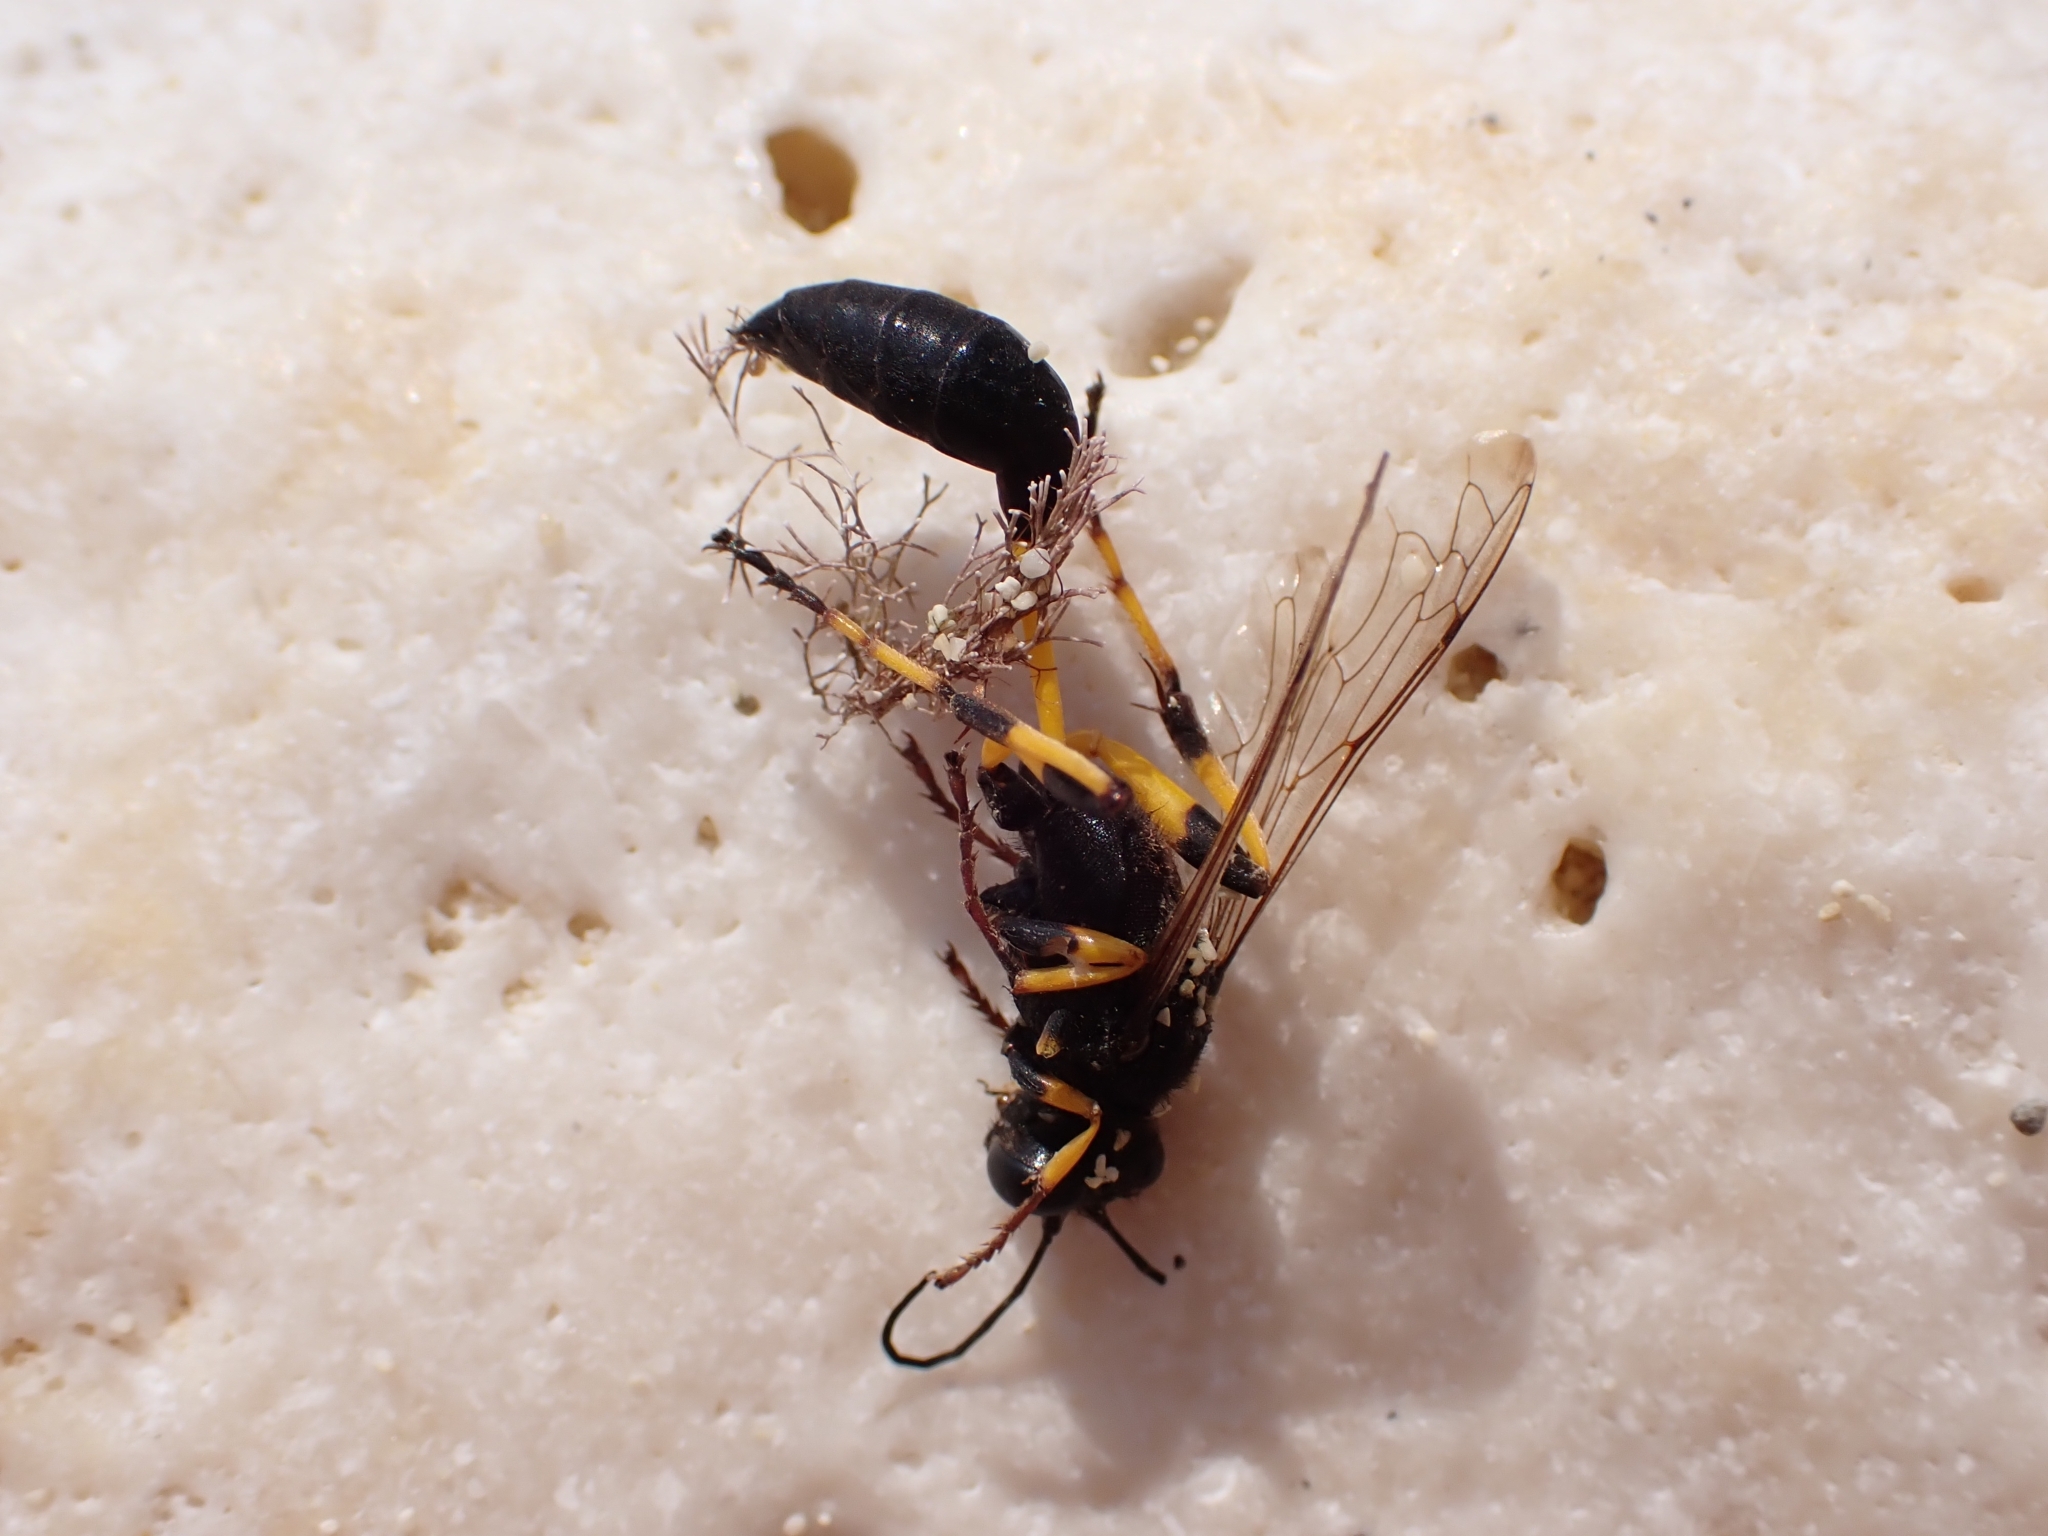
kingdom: Animalia
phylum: Arthropoda
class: Insecta
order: Hymenoptera
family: Sphecidae
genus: Sceliphron
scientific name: Sceliphron spirifex
